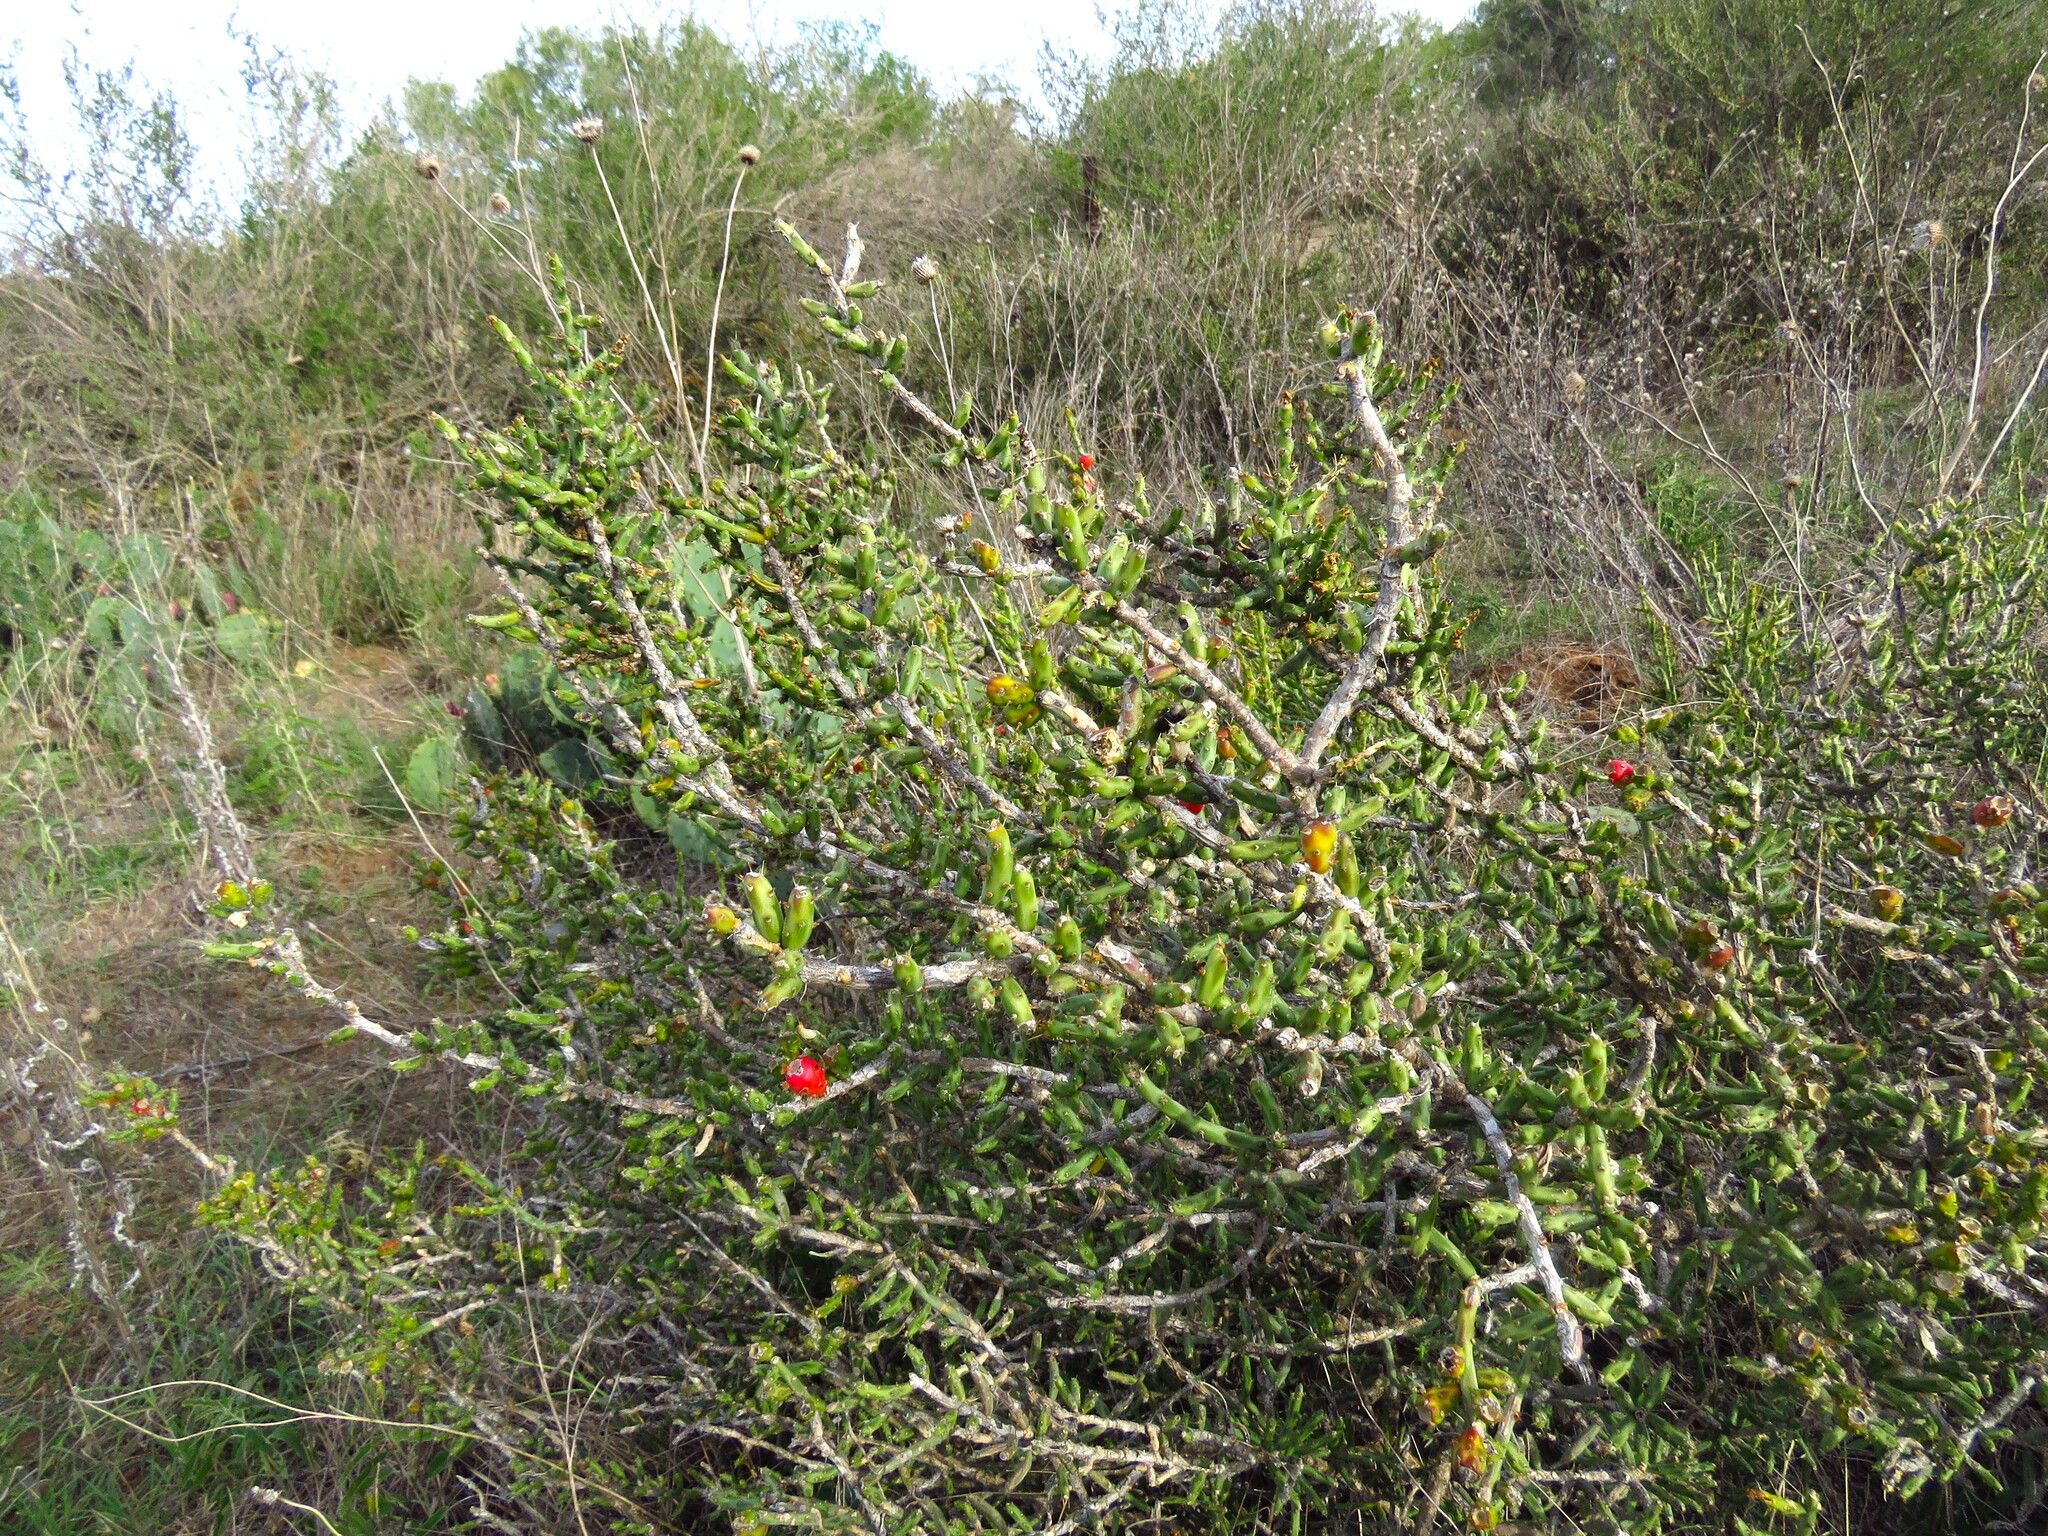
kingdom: Plantae
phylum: Tracheophyta
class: Magnoliopsida
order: Caryophyllales
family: Cactaceae
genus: Cylindropuntia
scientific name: Cylindropuntia leptocaulis
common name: Christmas cactus
